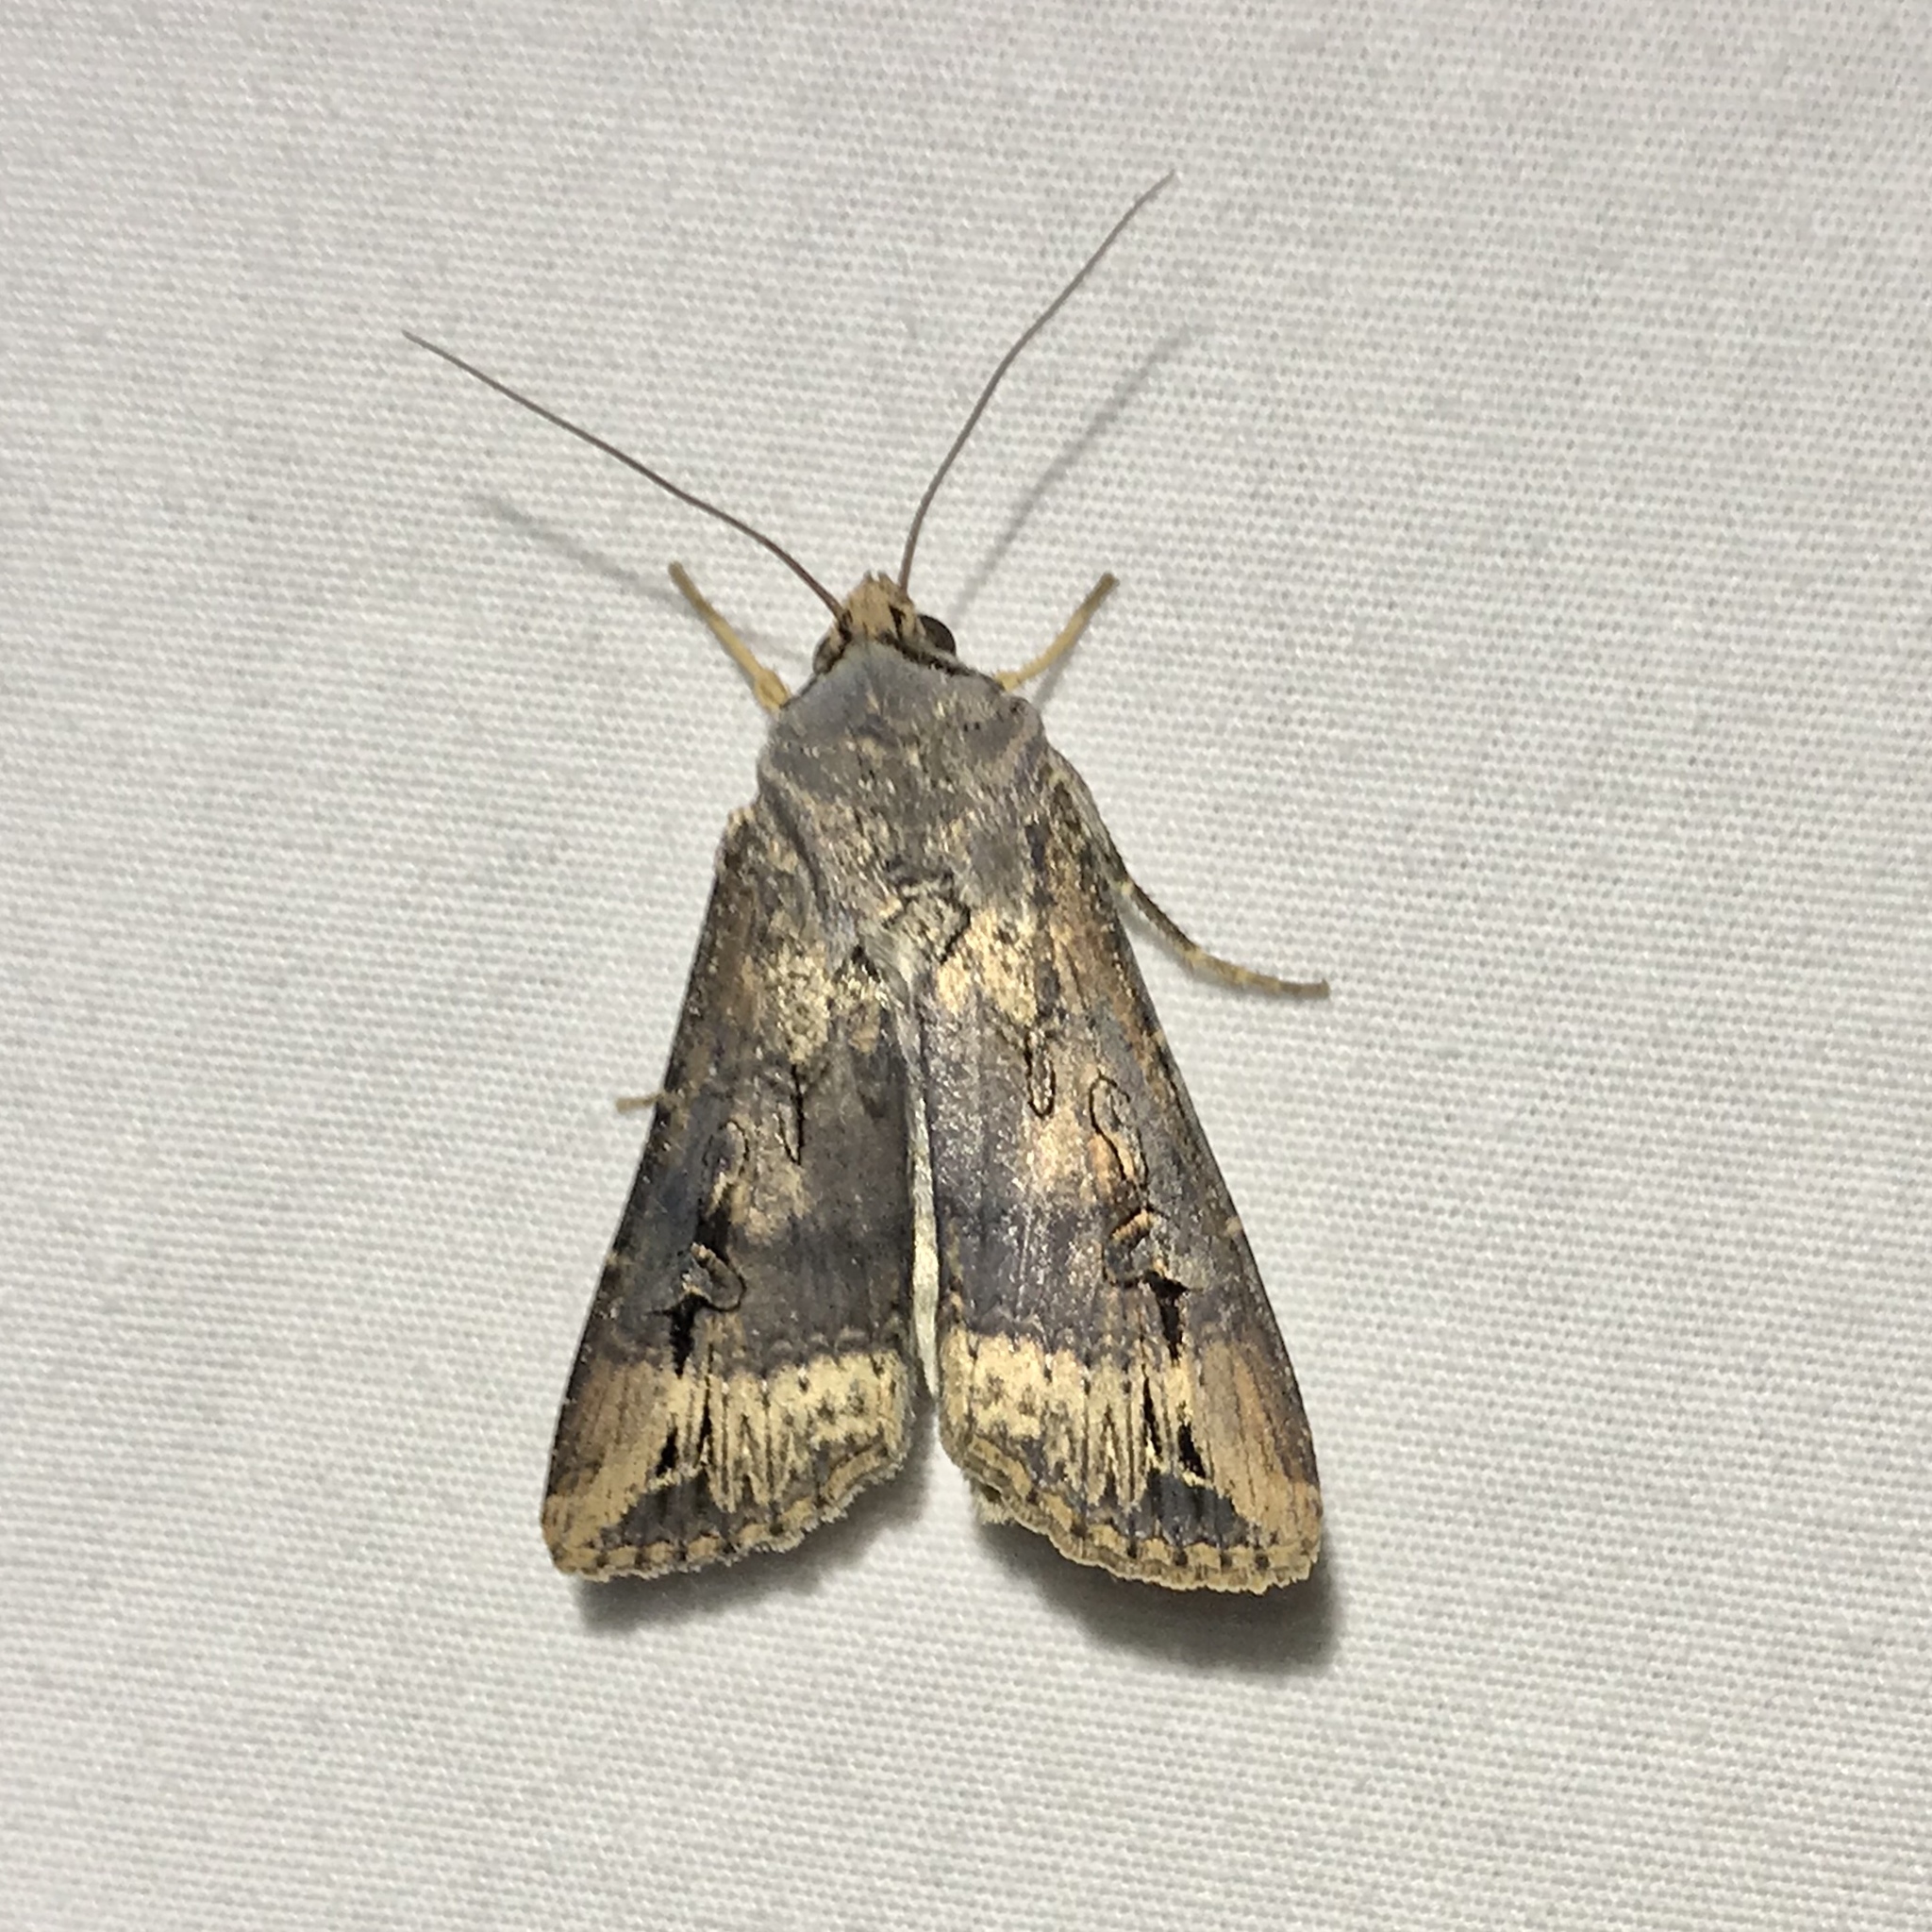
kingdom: Animalia
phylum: Arthropoda
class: Insecta
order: Lepidoptera
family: Noctuidae
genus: Agrotis
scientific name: Agrotis ipsilon
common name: Dark sword-grass
